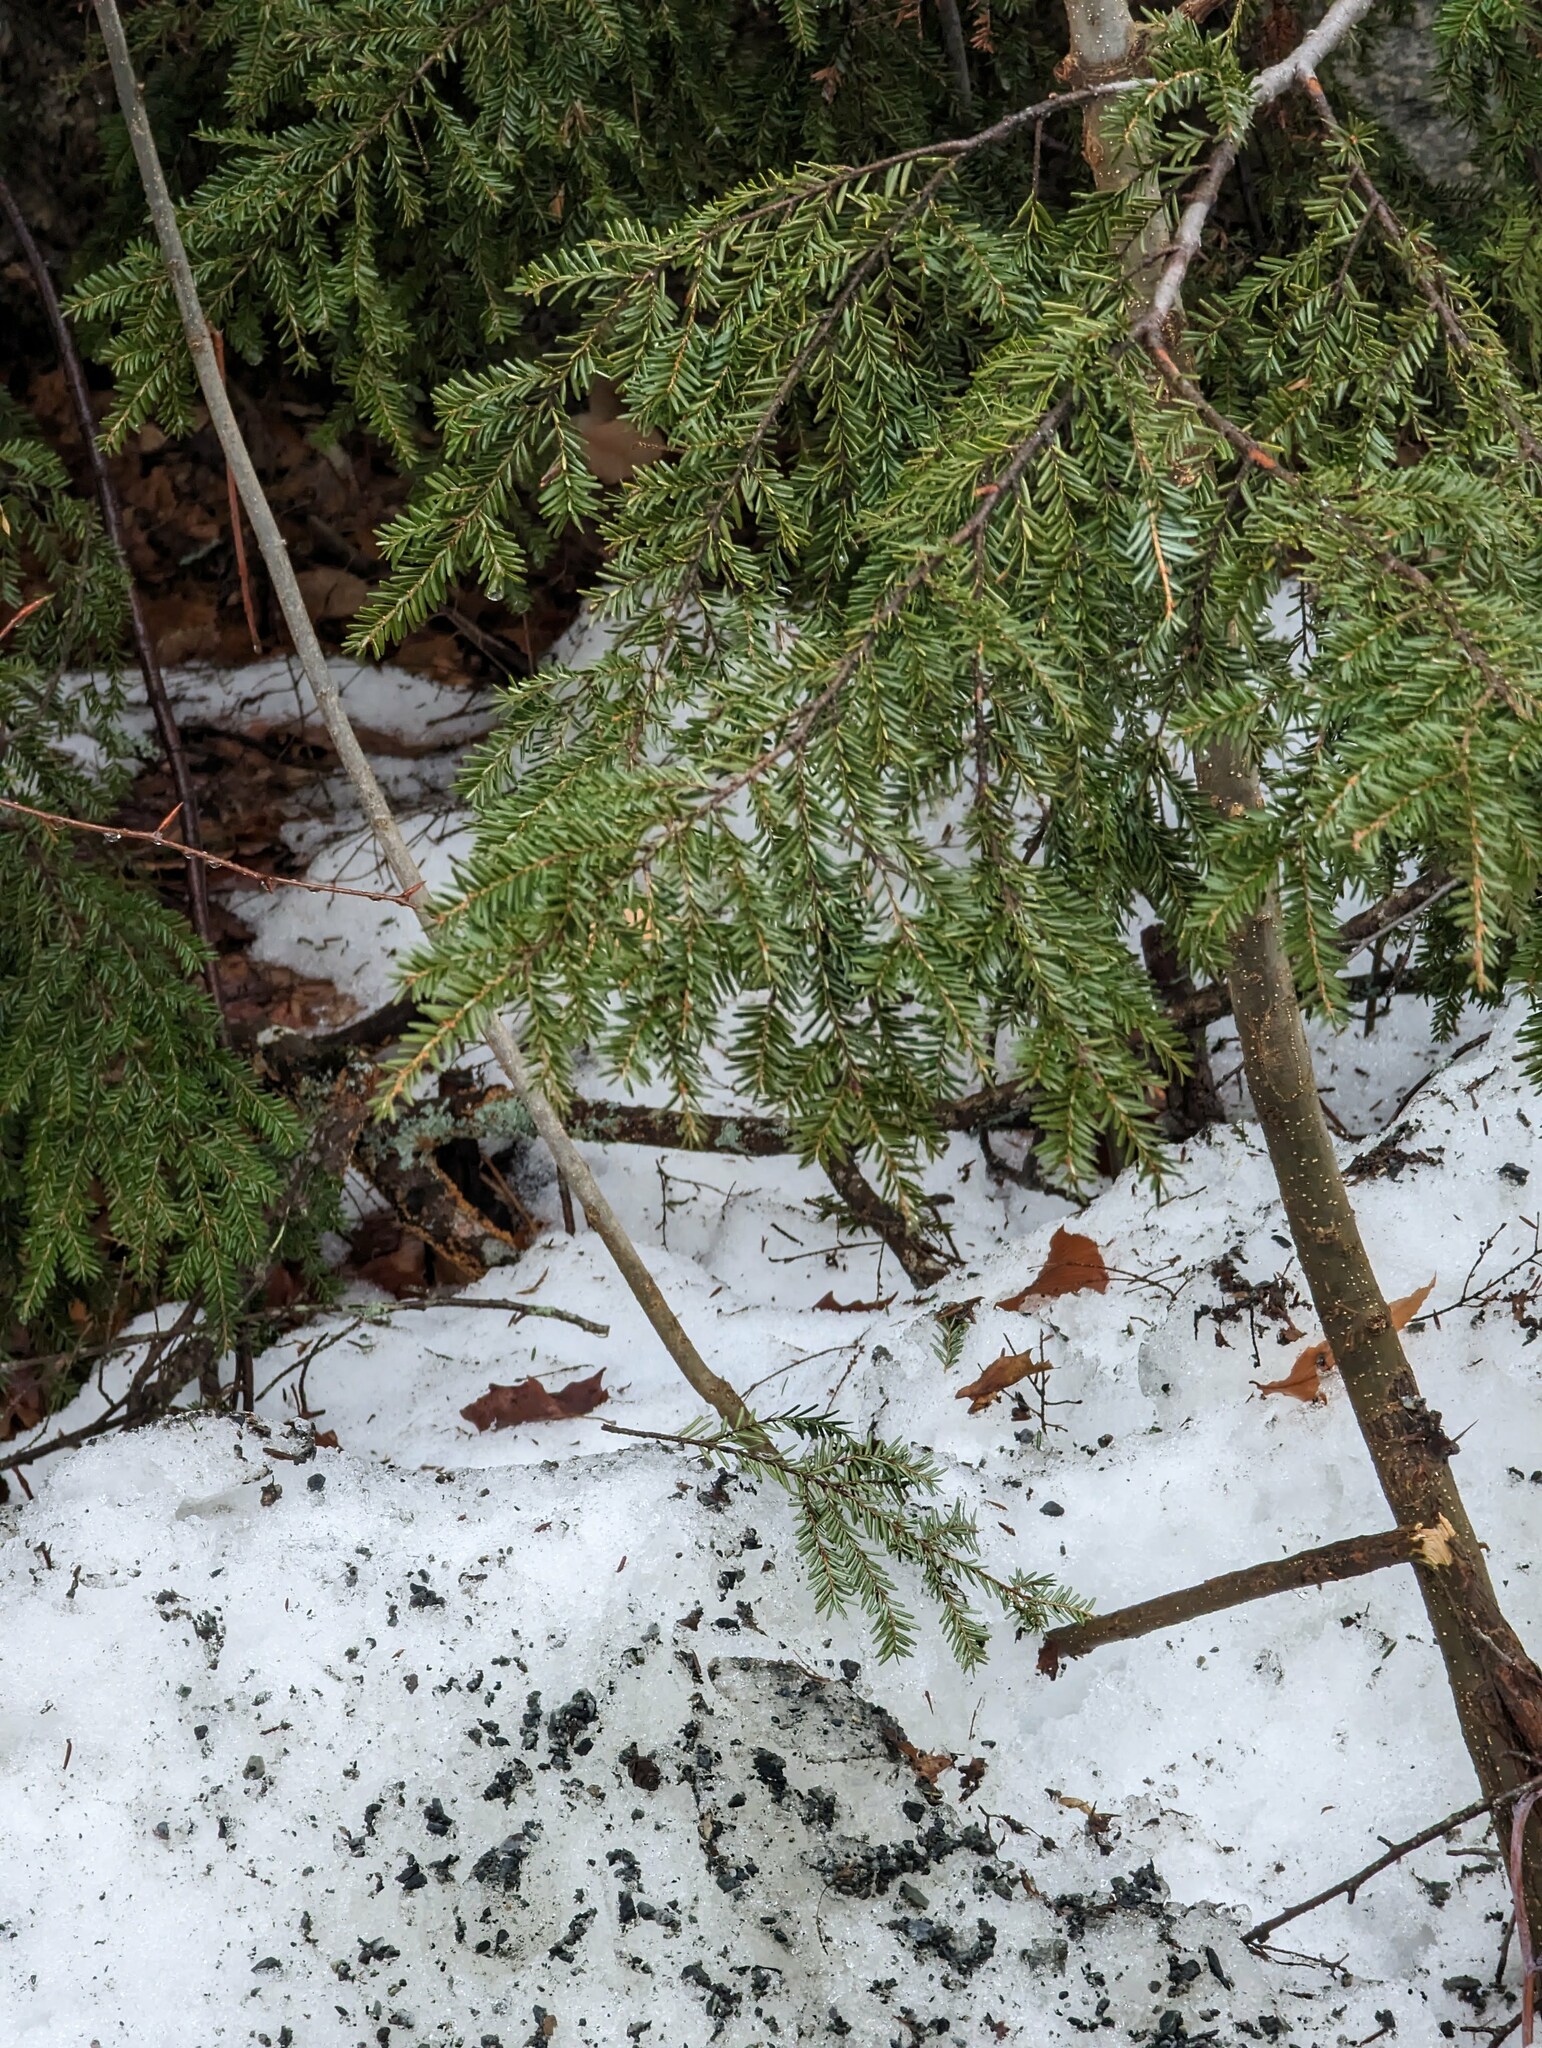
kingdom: Plantae
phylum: Tracheophyta
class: Pinopsida
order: Pinales
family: Pinaceae
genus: Tsuga
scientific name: Tsuga canadensis
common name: Eastern hemlock
